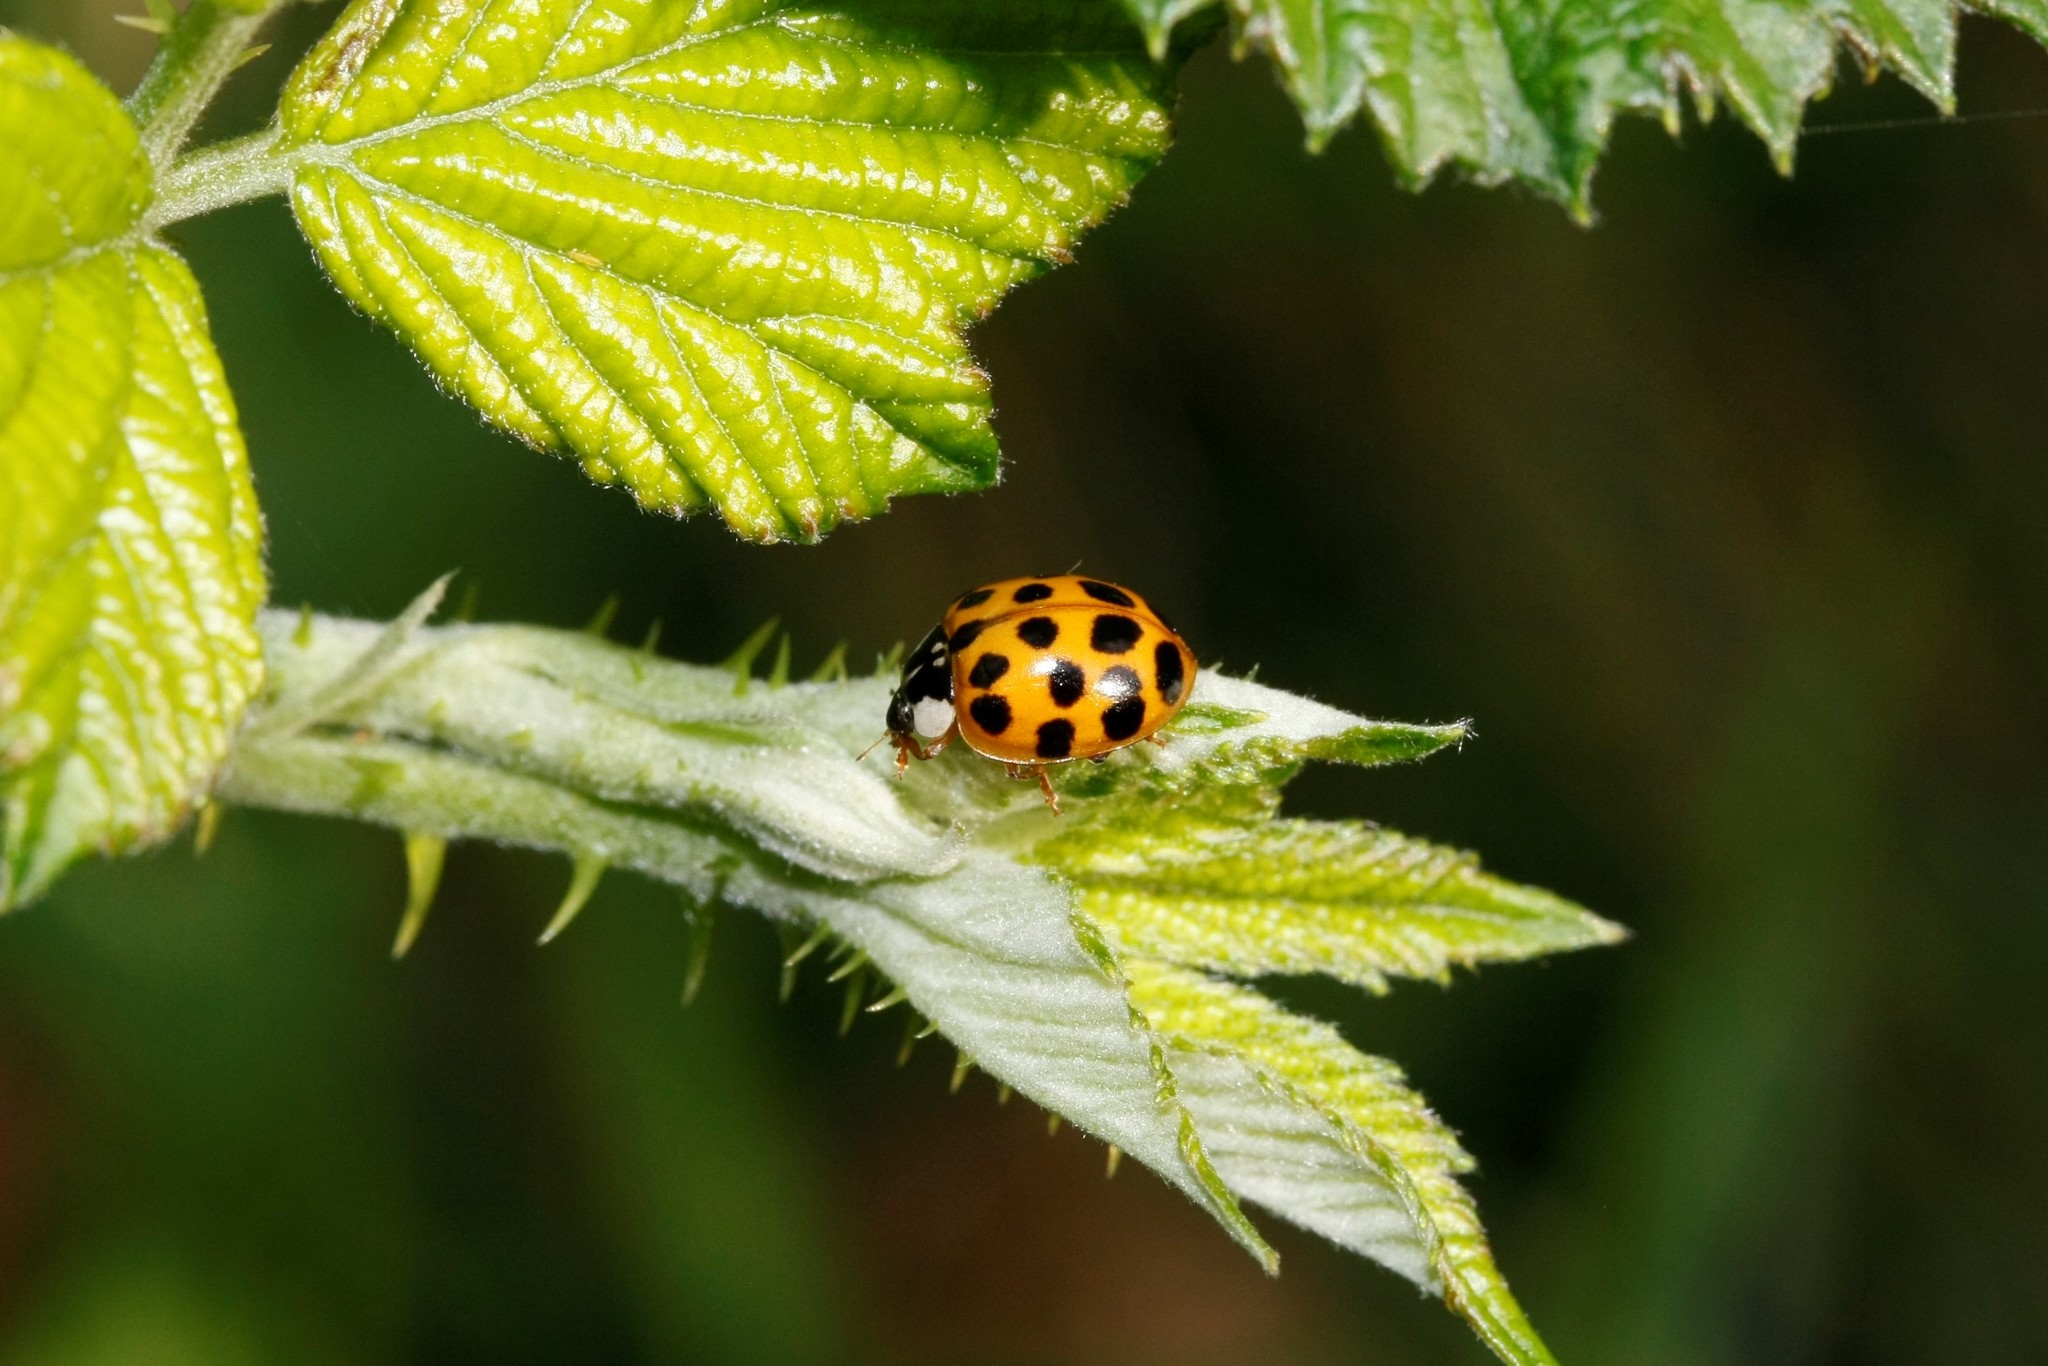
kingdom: Animalia
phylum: Arthropoda
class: Insecta
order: Coleoptera
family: Coccinellidae
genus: Harmonia
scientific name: Harmonia axyridis
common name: Harlequin ladybird
